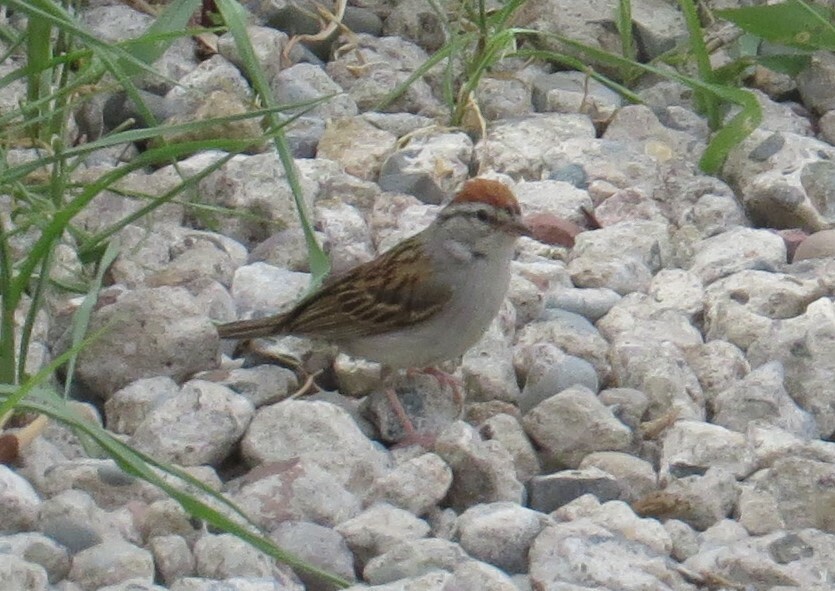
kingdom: Animalia
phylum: Chordata
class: Aves
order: Passeriformes
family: Passerellidae
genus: Spizella
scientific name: Spizella passerina
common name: Chipping sparrow
